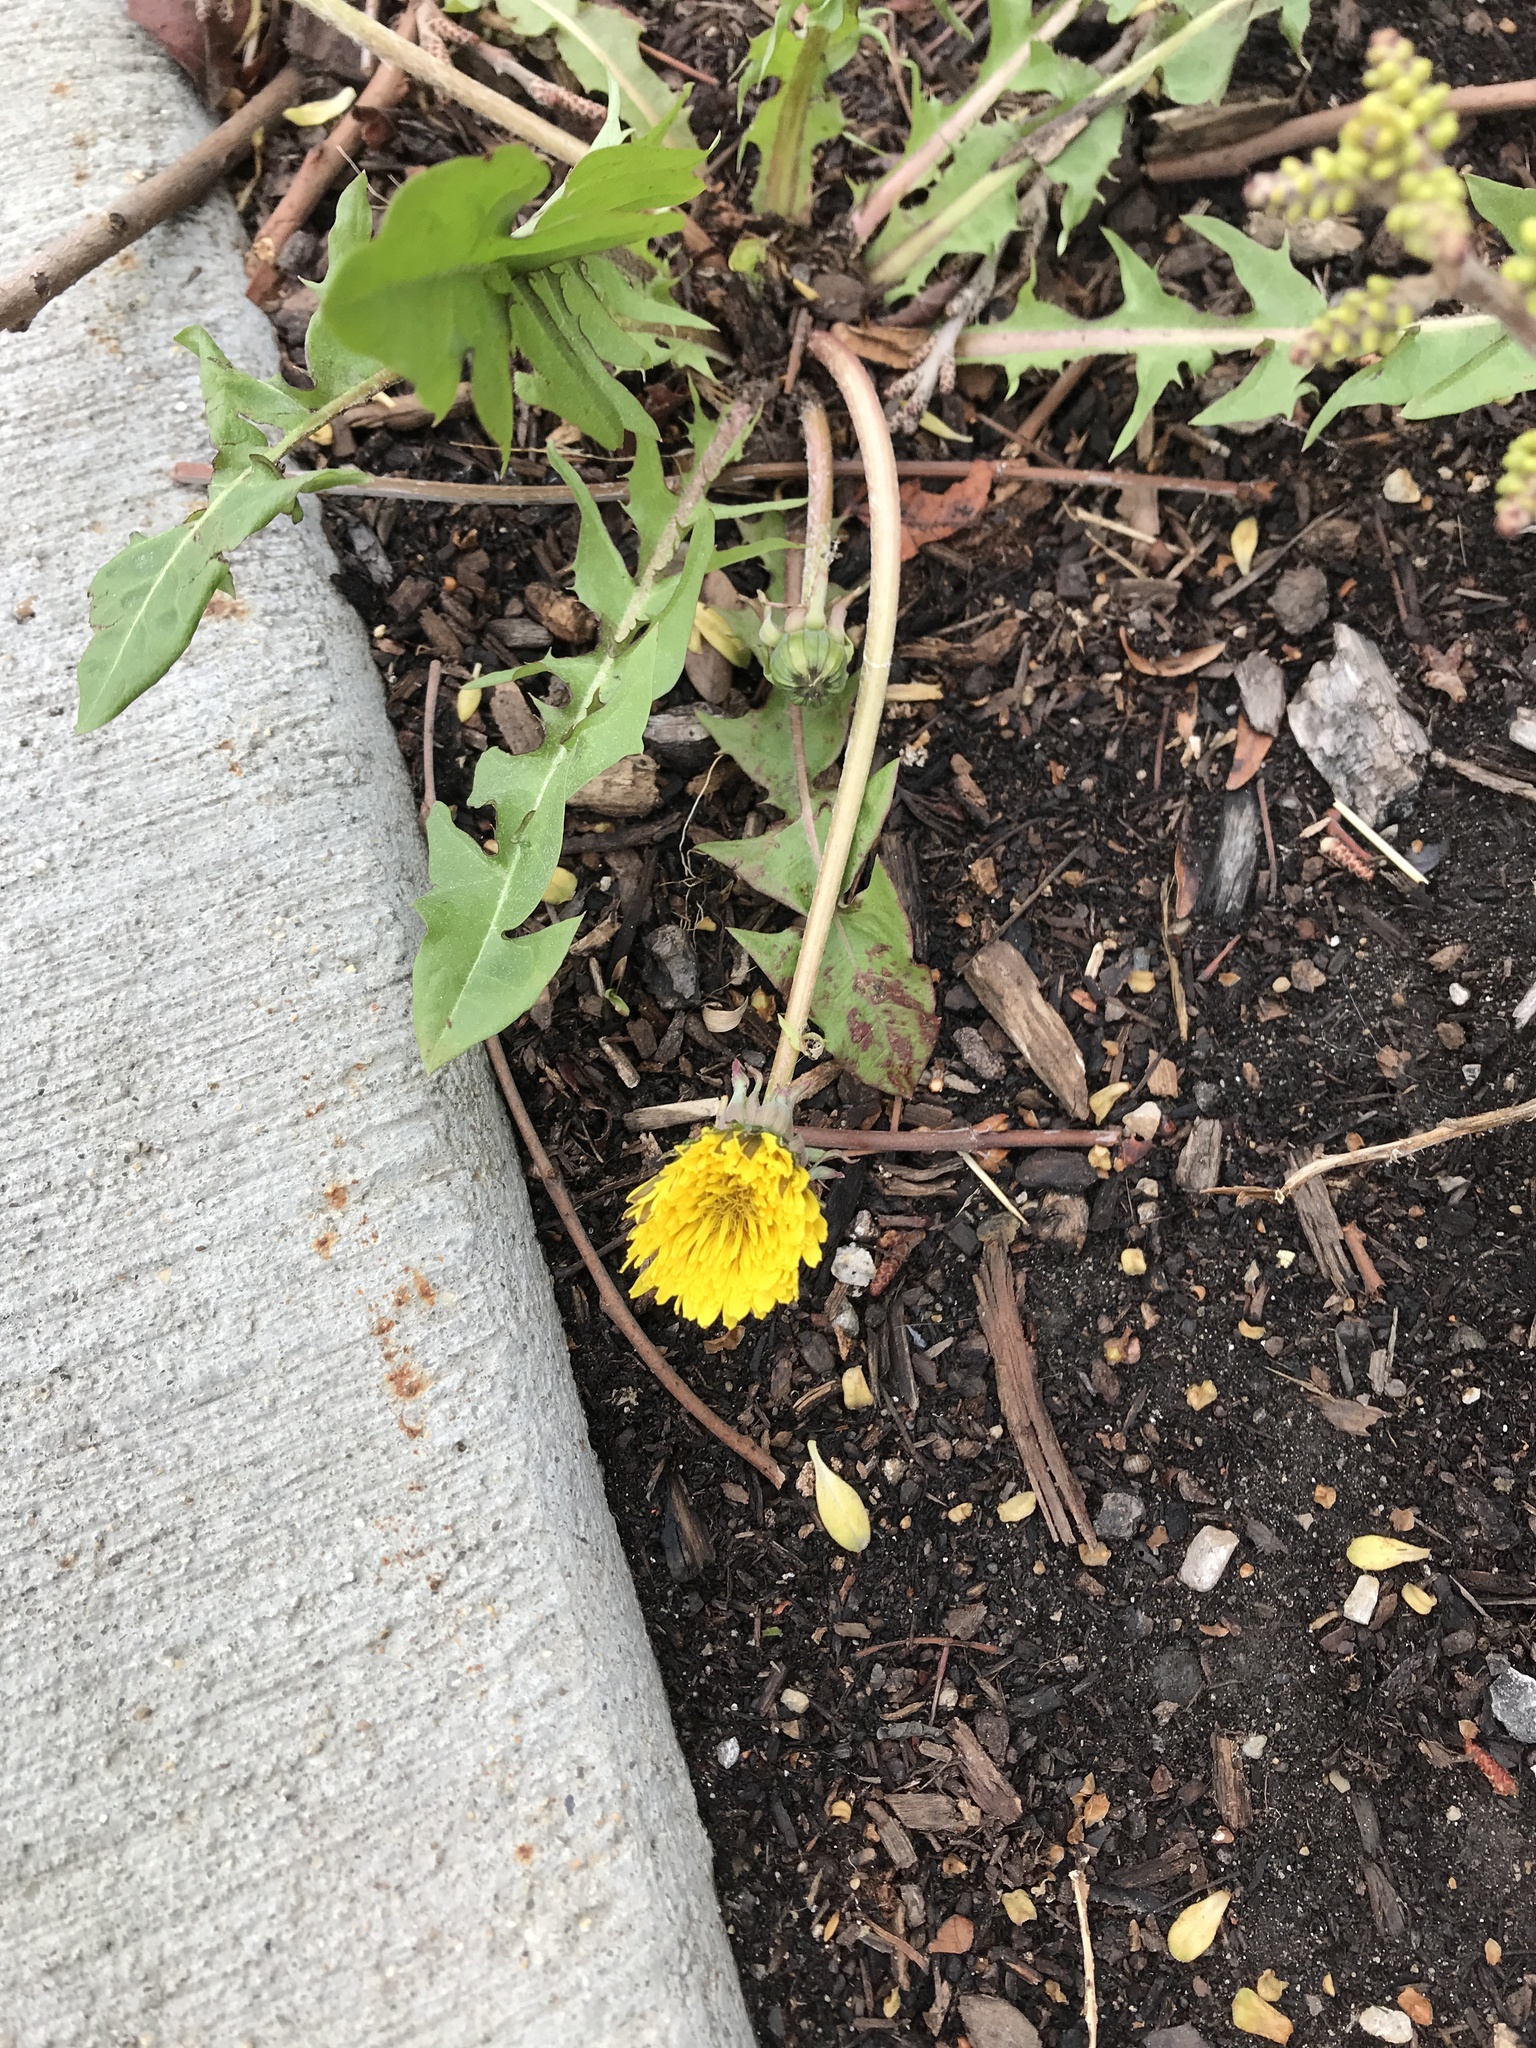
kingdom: Plantae
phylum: Tracheophyta
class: Magnoliopsida
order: Asterales
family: Asteraceae
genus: Taraxacum
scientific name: Taraxacum officinale
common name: Common dandelion
